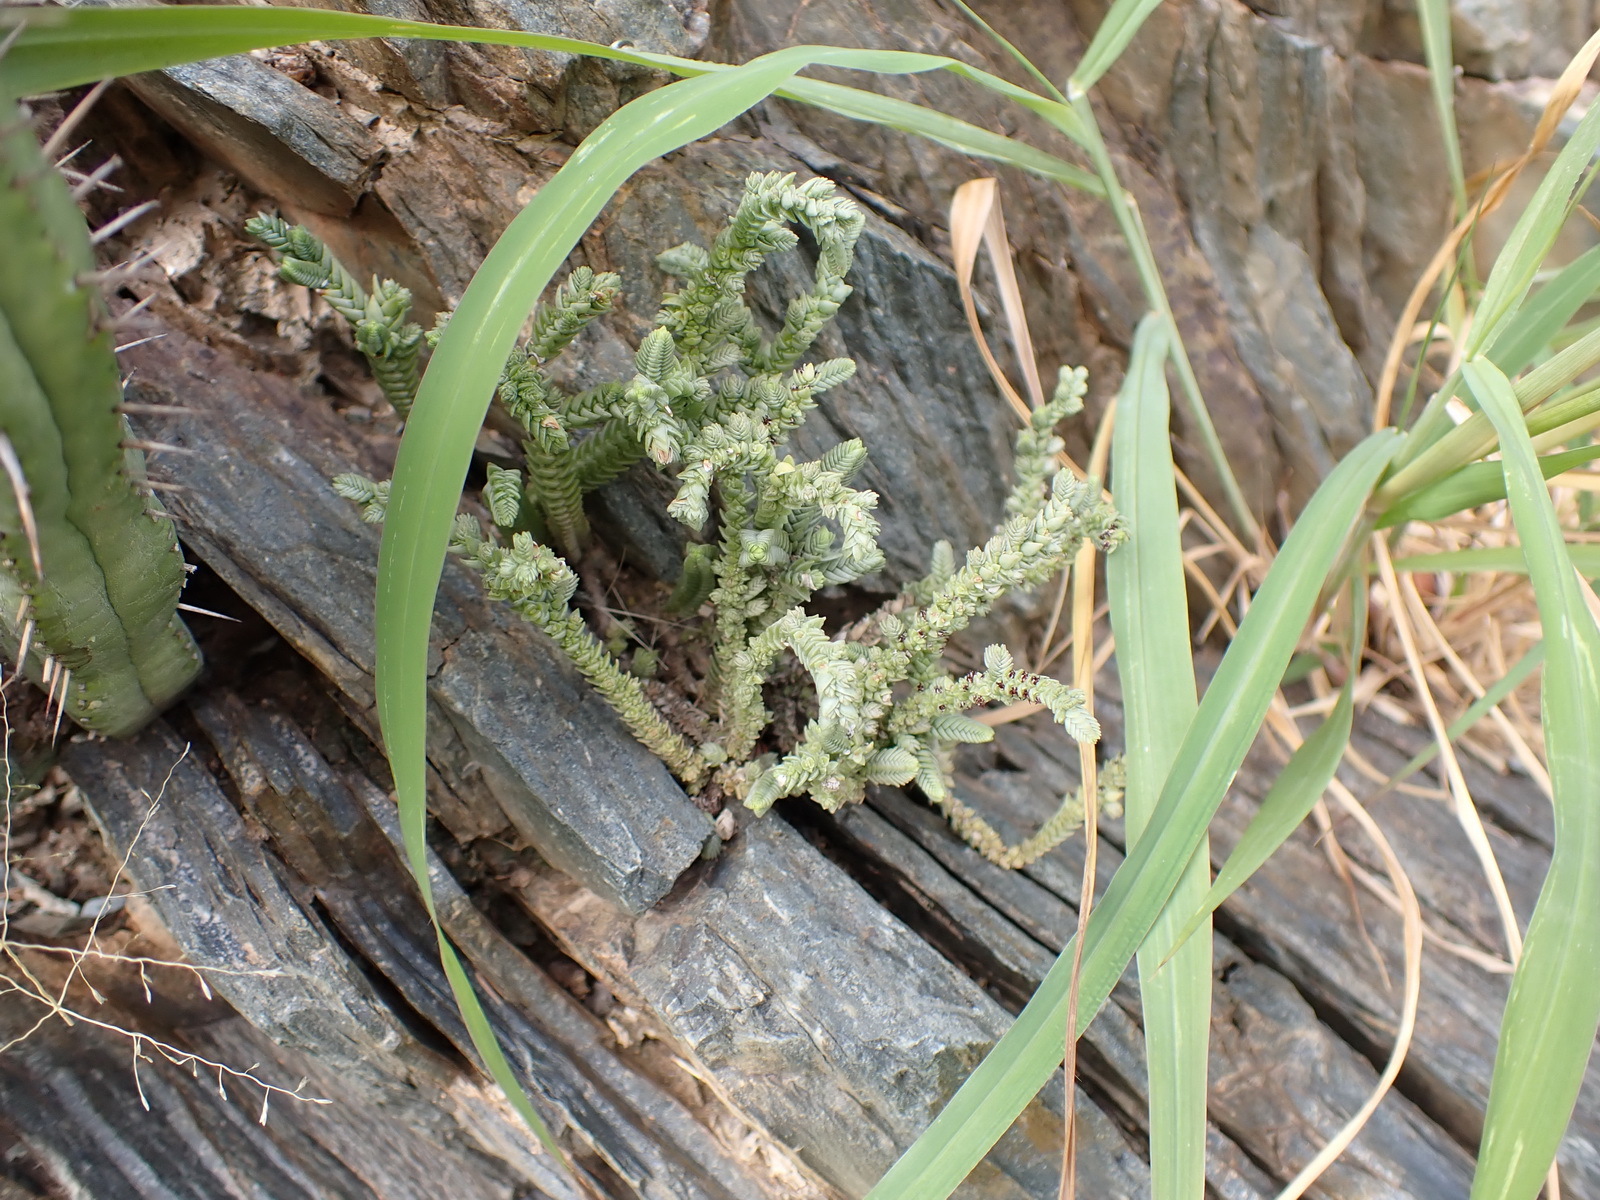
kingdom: Plantae
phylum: Tracheophyta
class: Magnoliopsida
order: Saxifragales
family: Crassulaceae
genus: Crassula
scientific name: Crassula muscosa
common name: Toy-cypress
